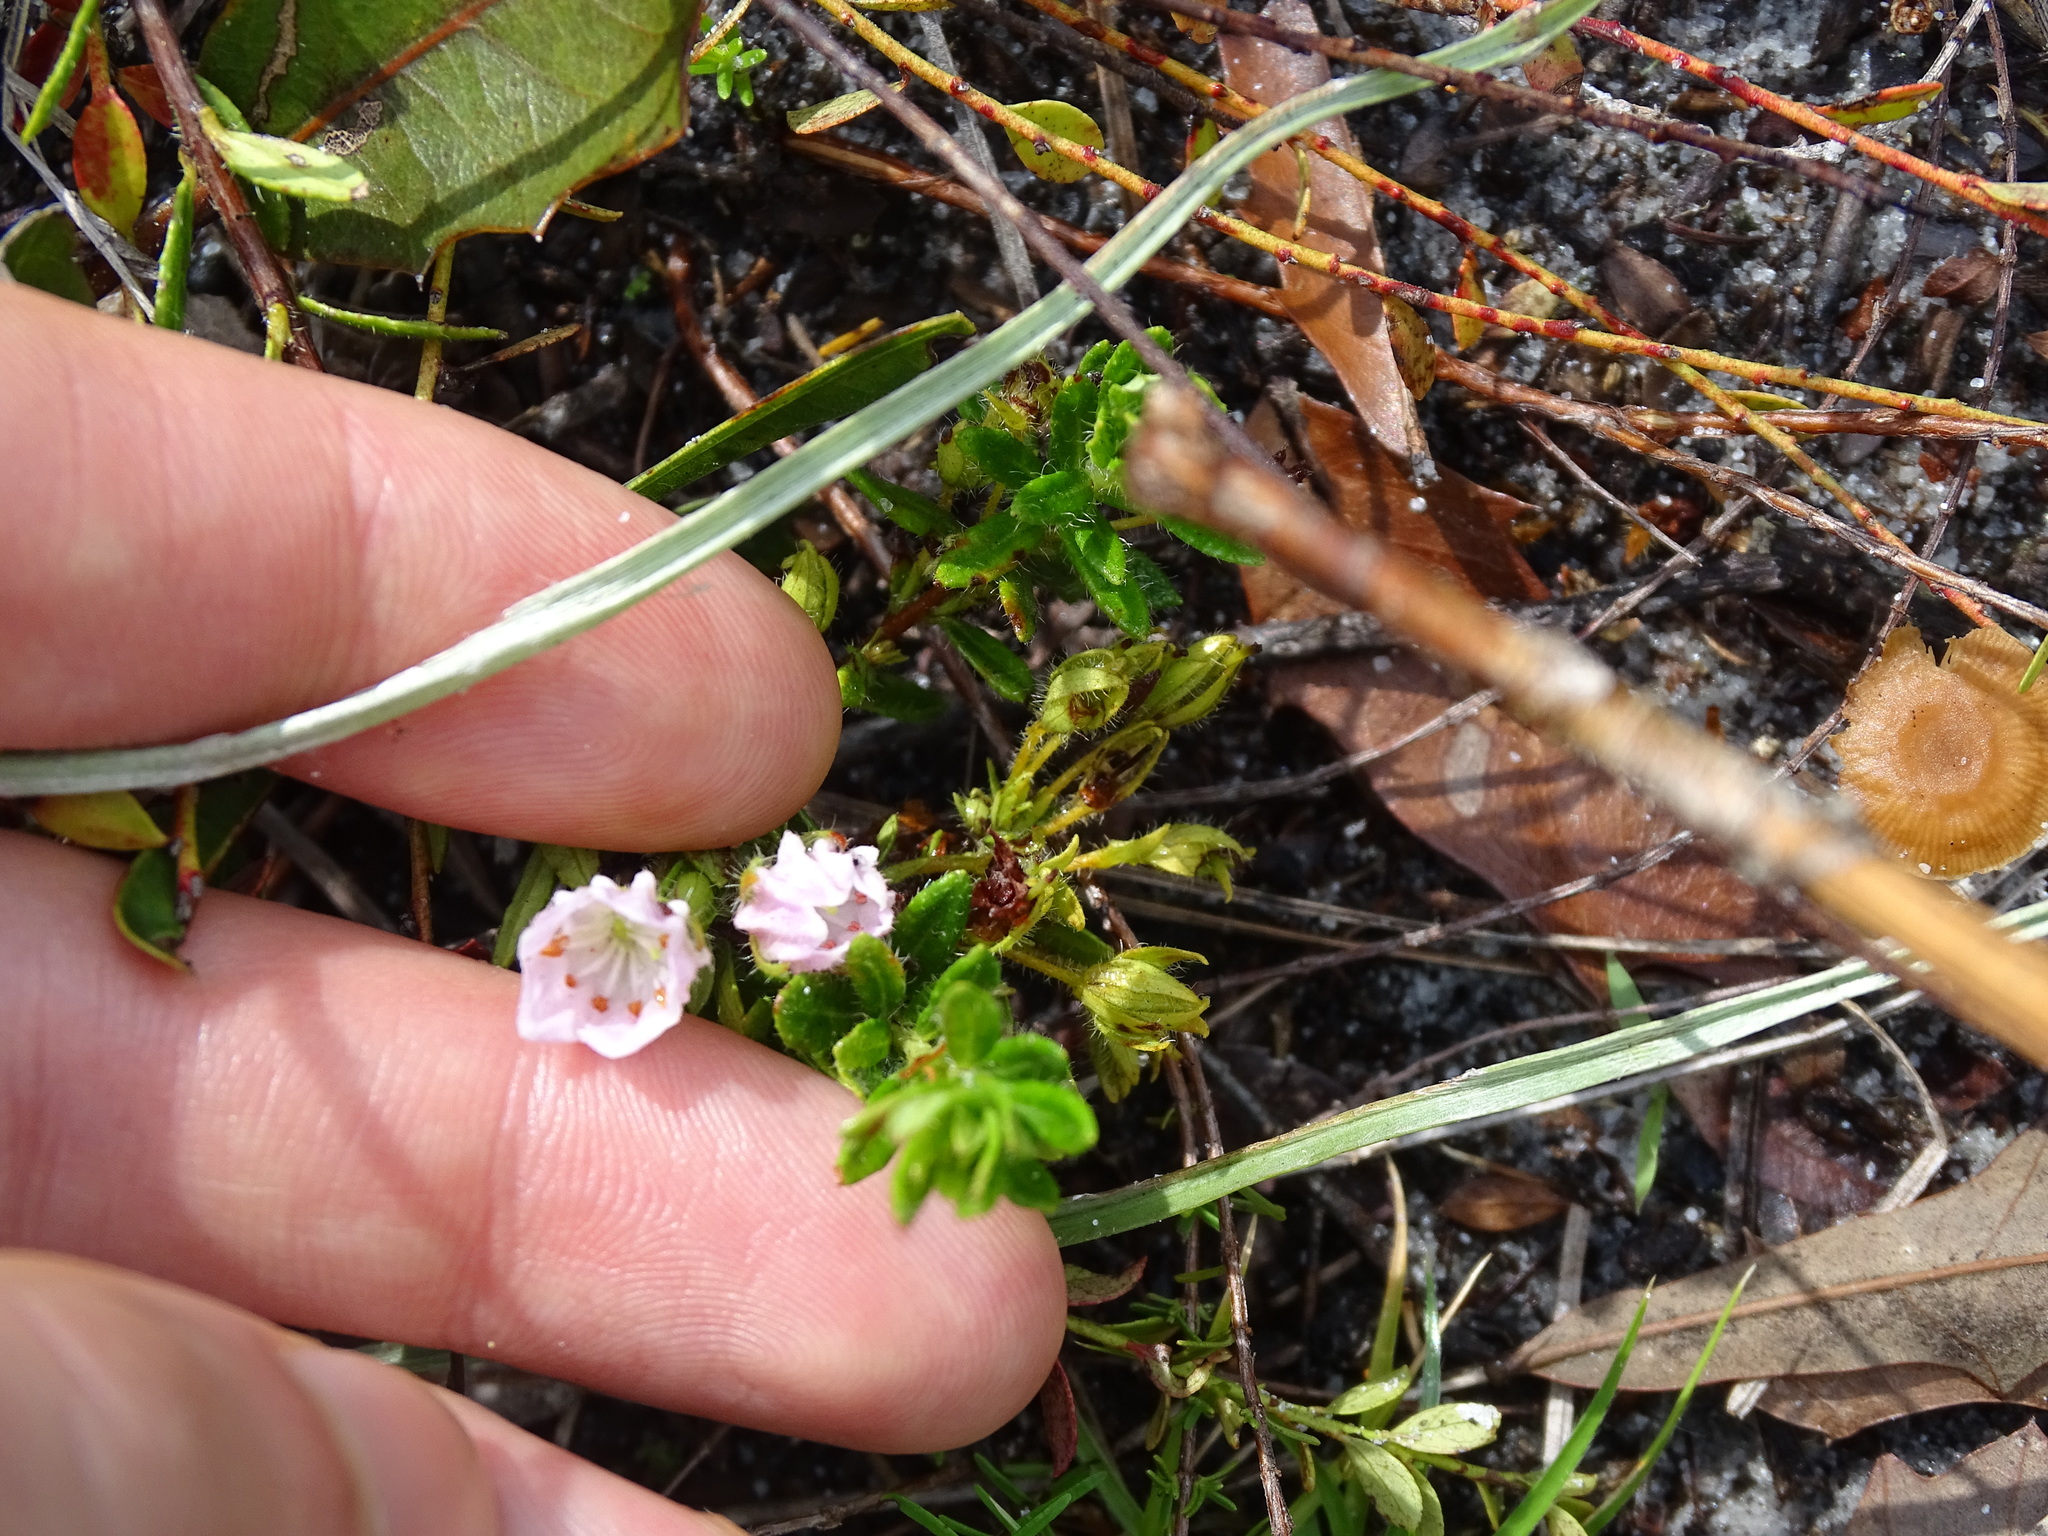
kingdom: Plantae
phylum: Tracheophyta
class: Magnoliopsida
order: Ericales
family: Ericaceae
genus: Kalmia
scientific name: Kalmia hirsuta
